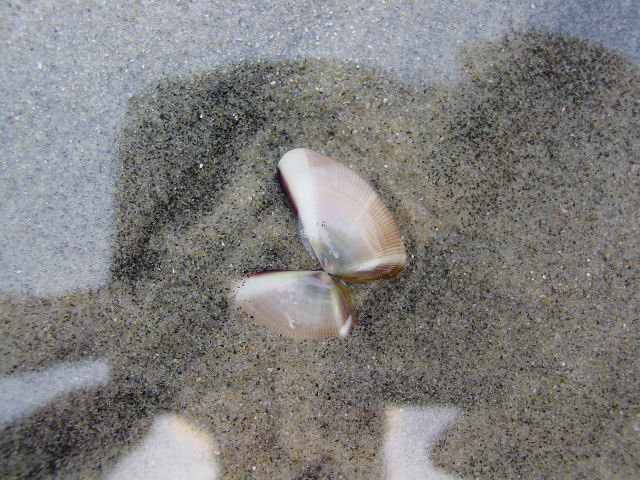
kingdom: Animalia
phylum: Mollusca
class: Bivalvia
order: Cardiida
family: Donacidae
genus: Donax
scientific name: Donax gouldii
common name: Gould beanclam
